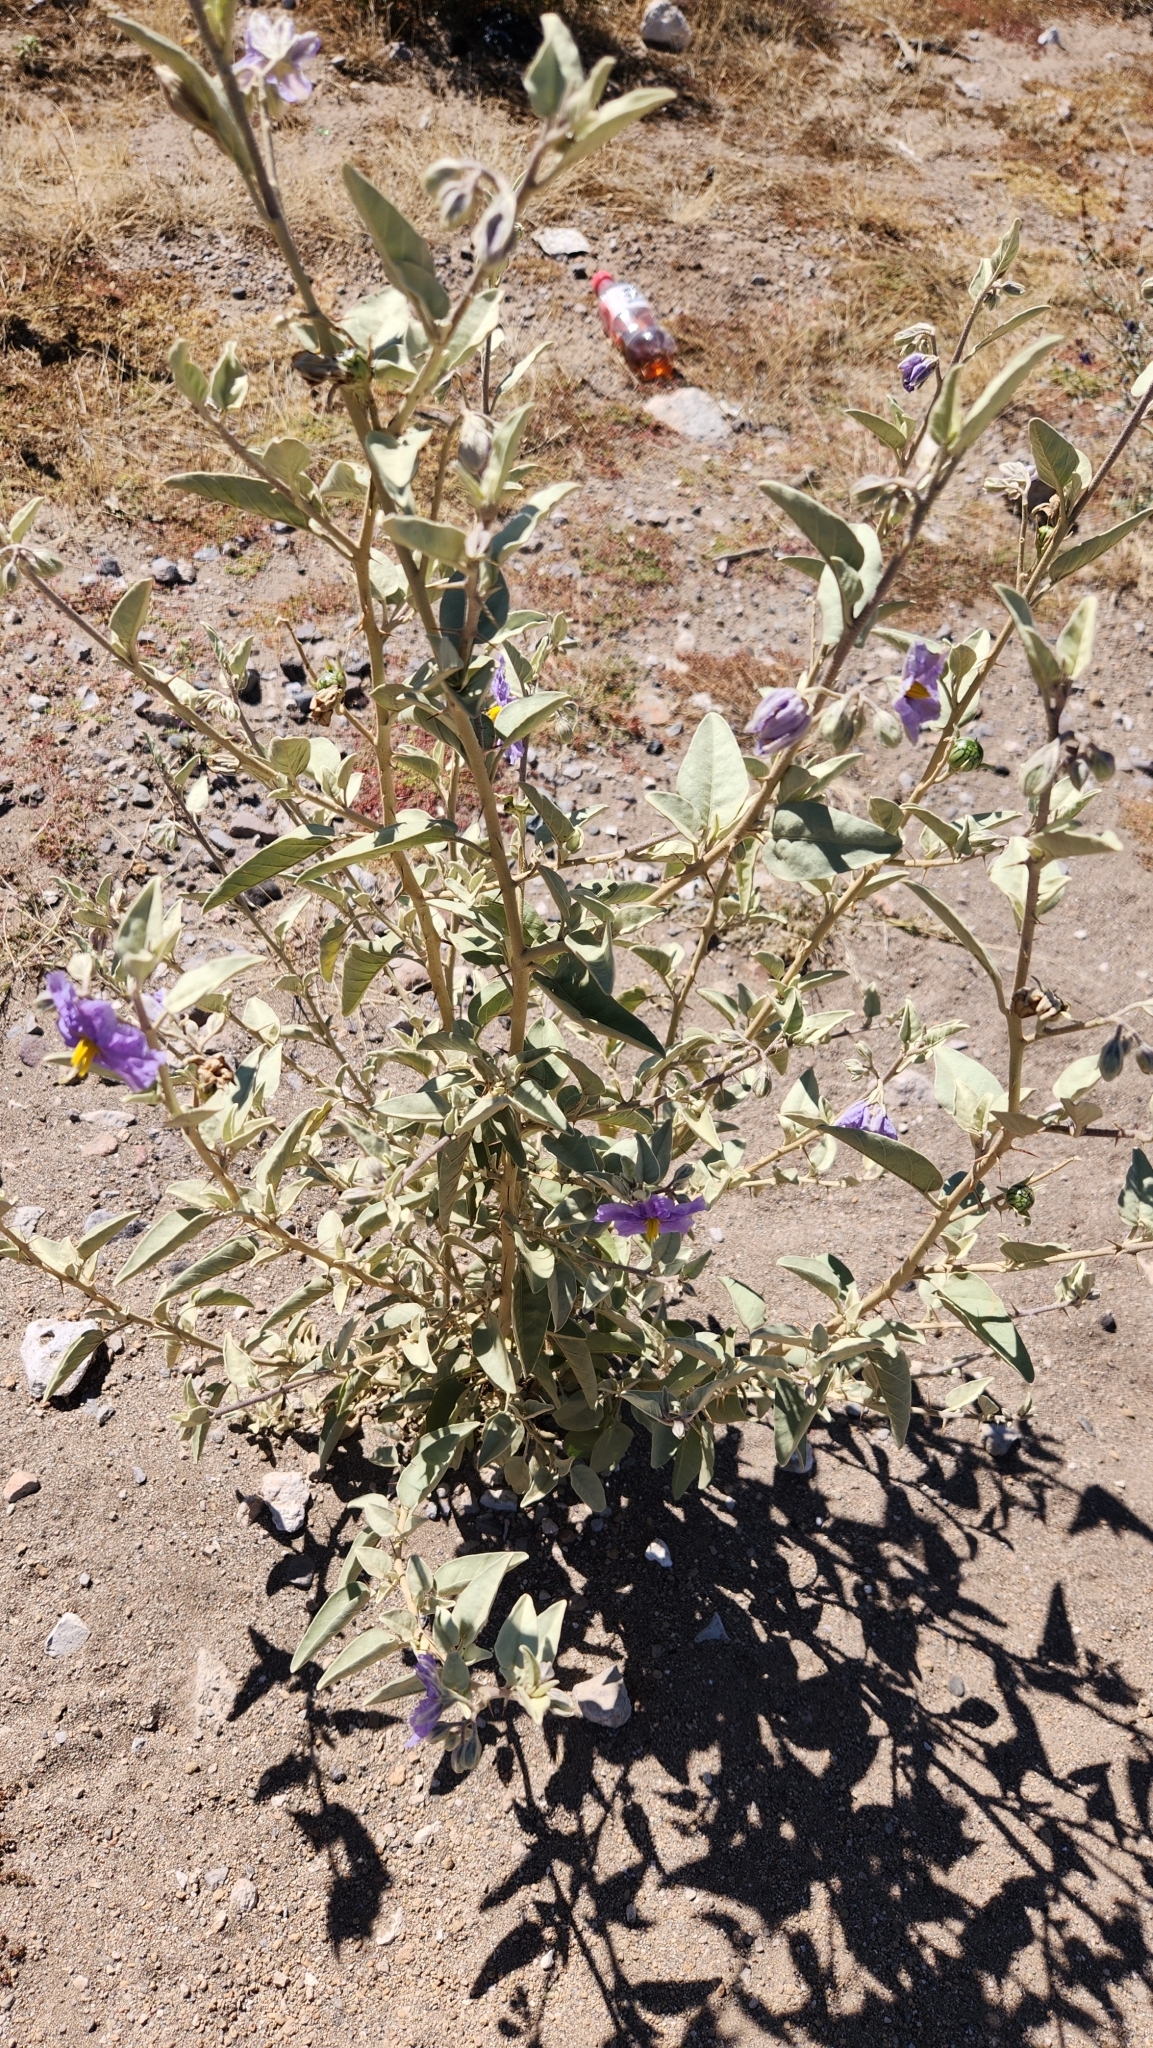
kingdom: Plantae
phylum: Tracheophyta
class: Magnoliopsida
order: Solanales
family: Solanaceae
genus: Solanum
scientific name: Solanum hindsianum
